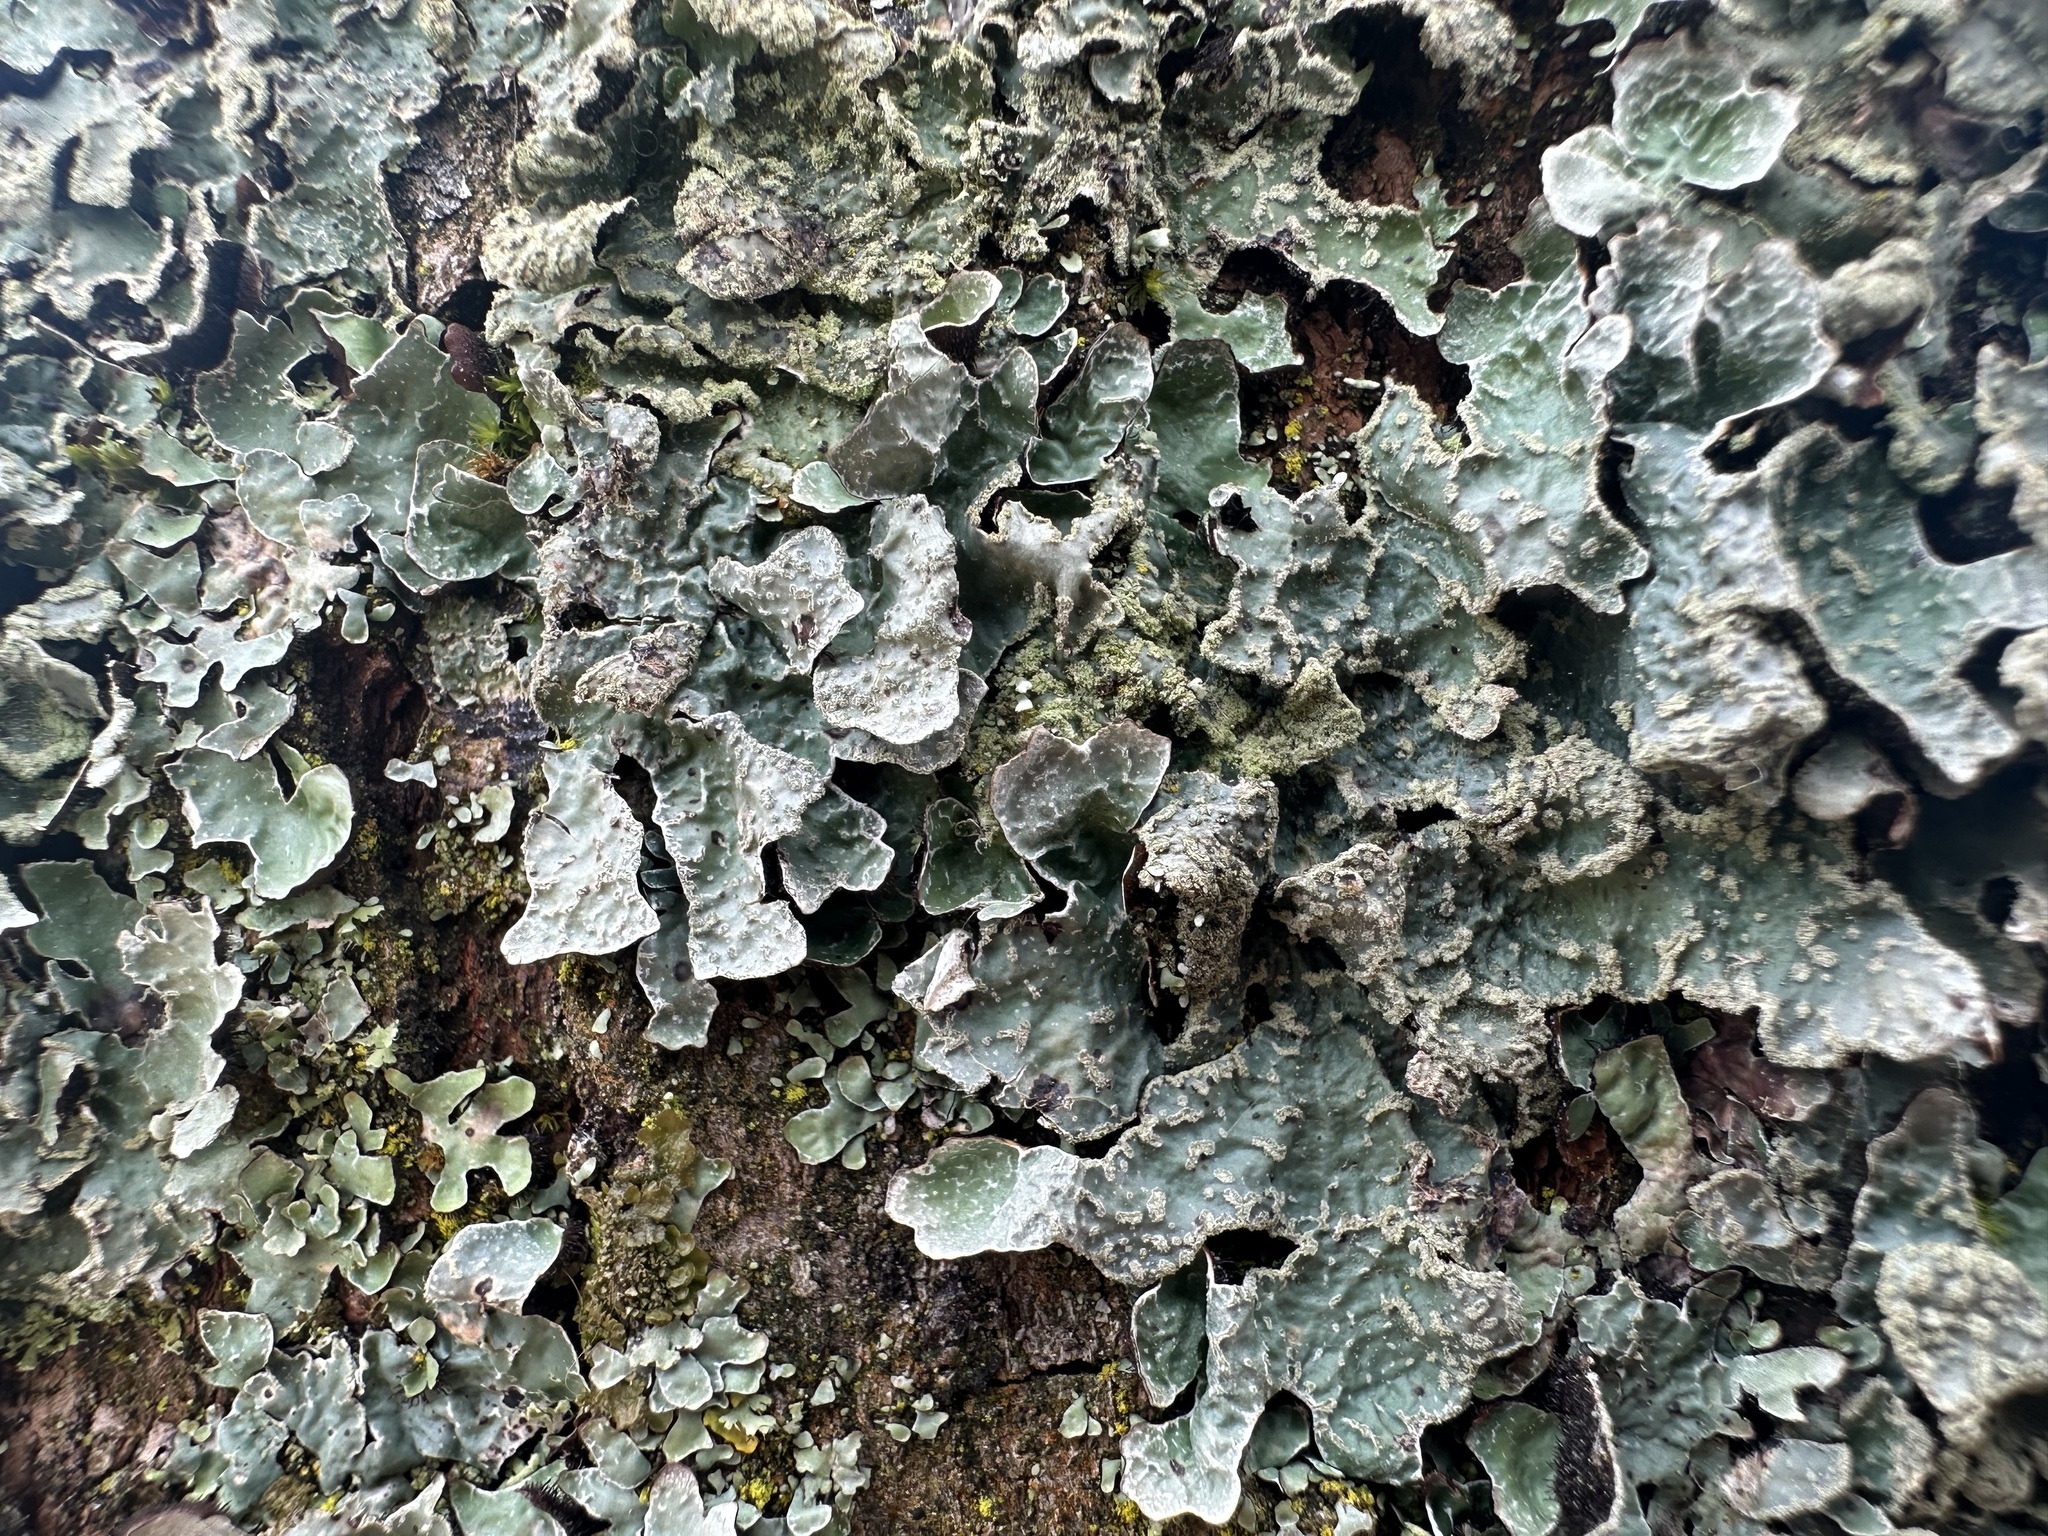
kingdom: Fungi
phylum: Ascomycota
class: Lecanoromycetes
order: Lecanorales
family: Parmeliaceae
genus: Parmelia
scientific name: Parmelia sulcata
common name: Netted shield lichen
